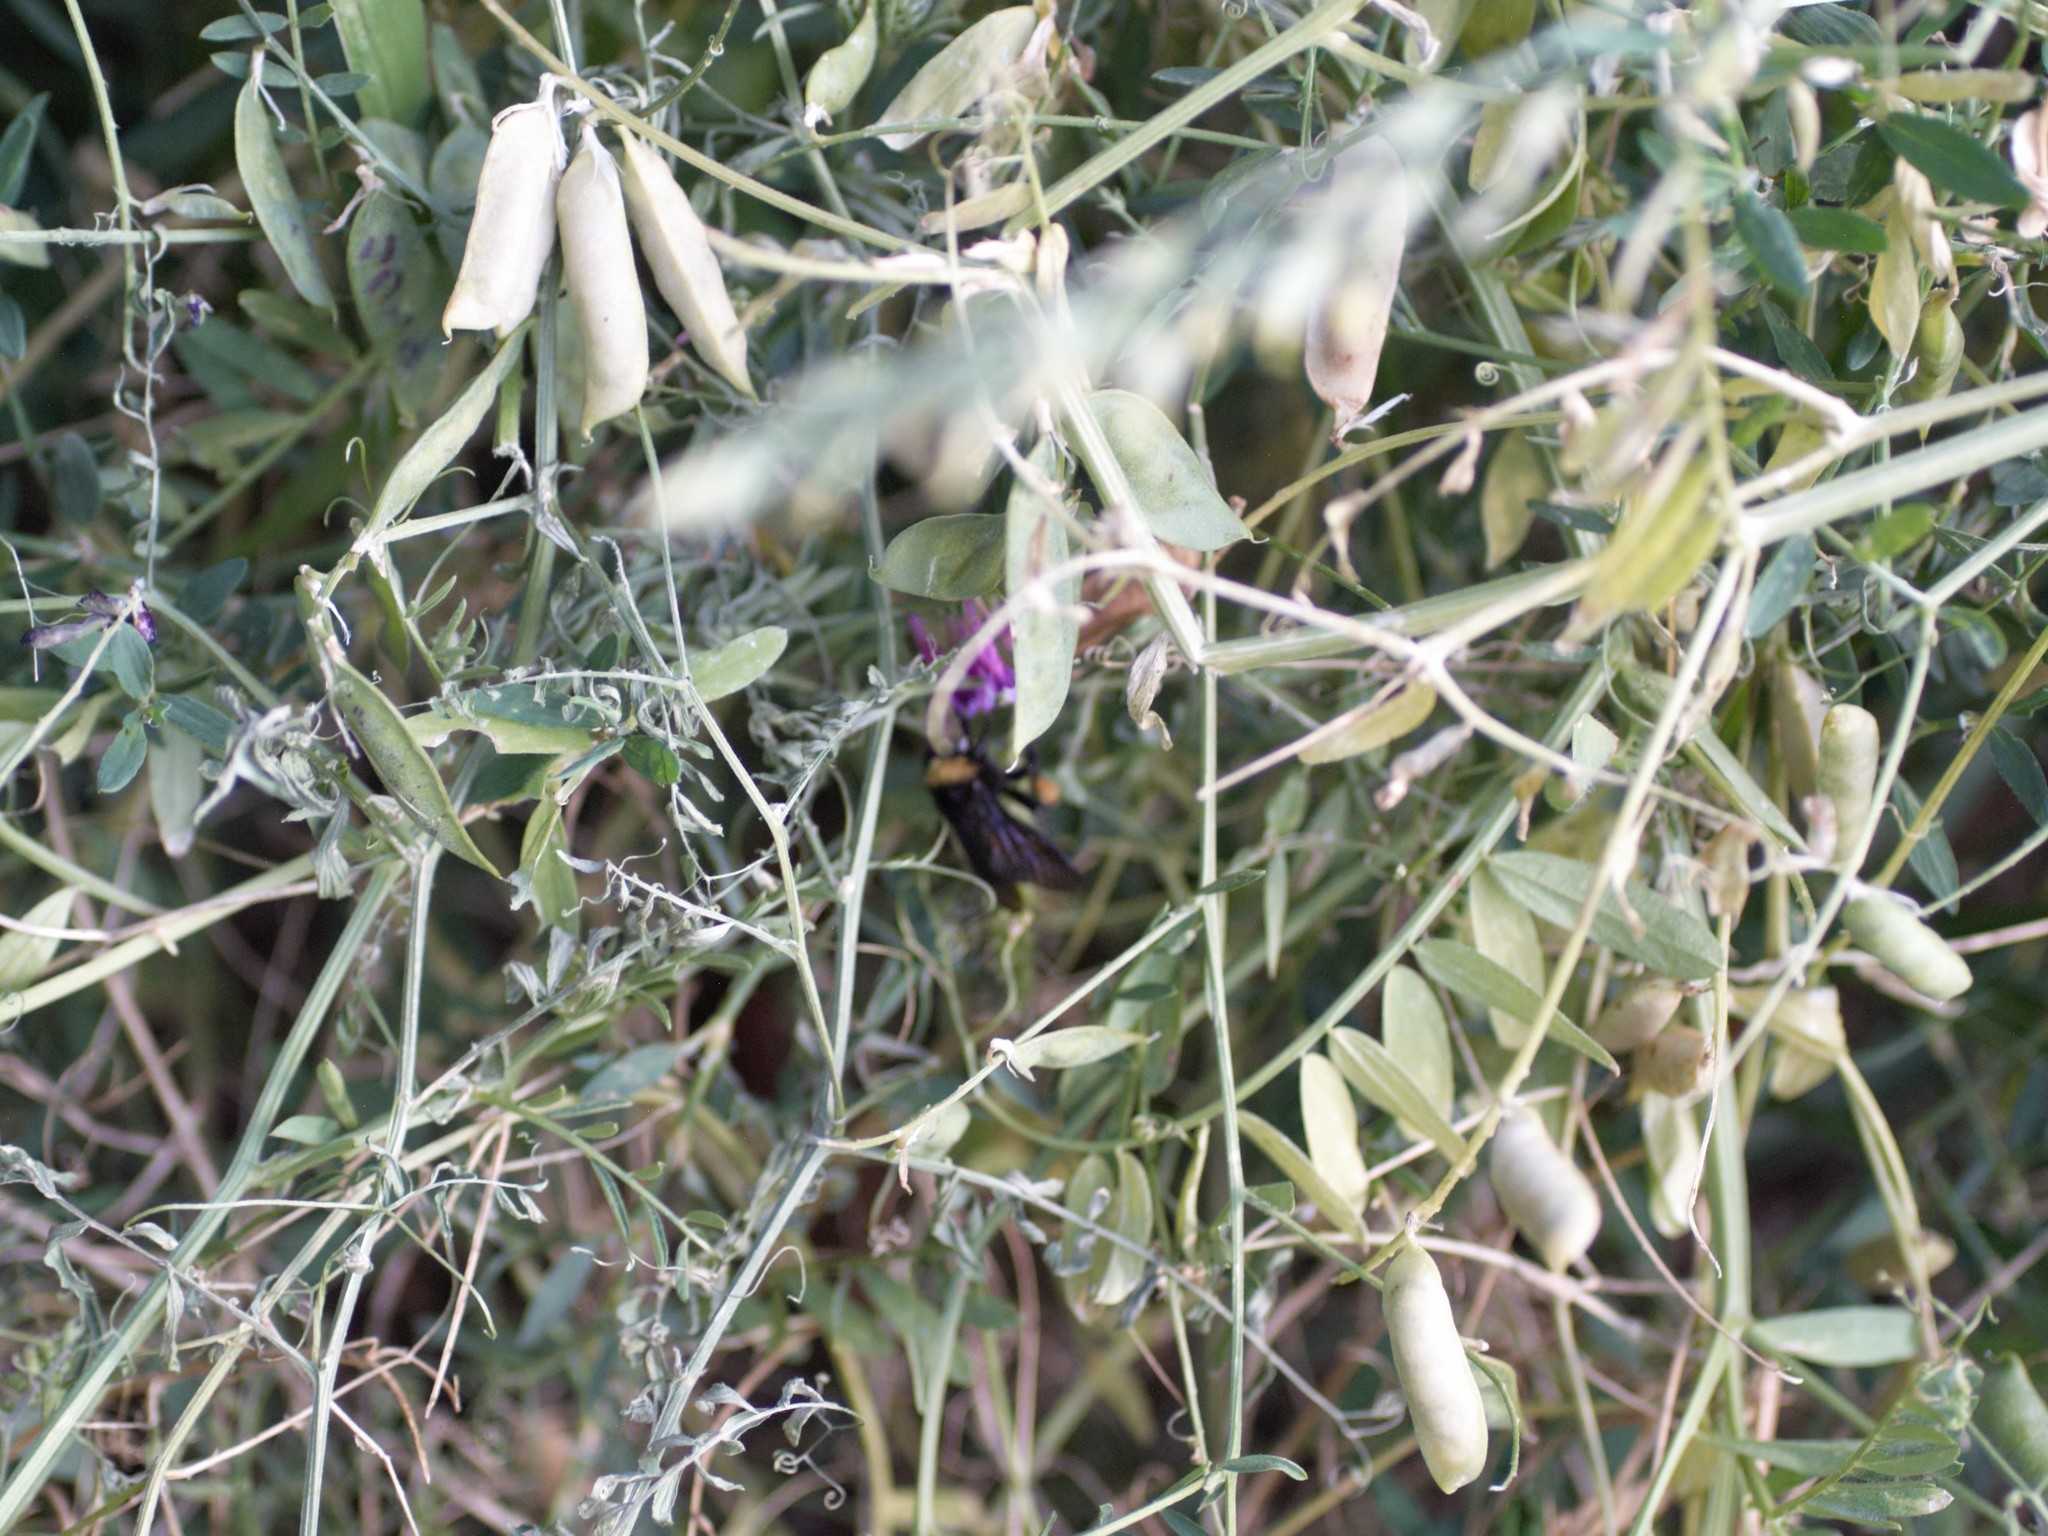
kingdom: Animalia
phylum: Arthropoda
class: Insecta
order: Hymenoptera
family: Apidae
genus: Bombus
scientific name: Bombus pensylvanicus
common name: Bumble bee
